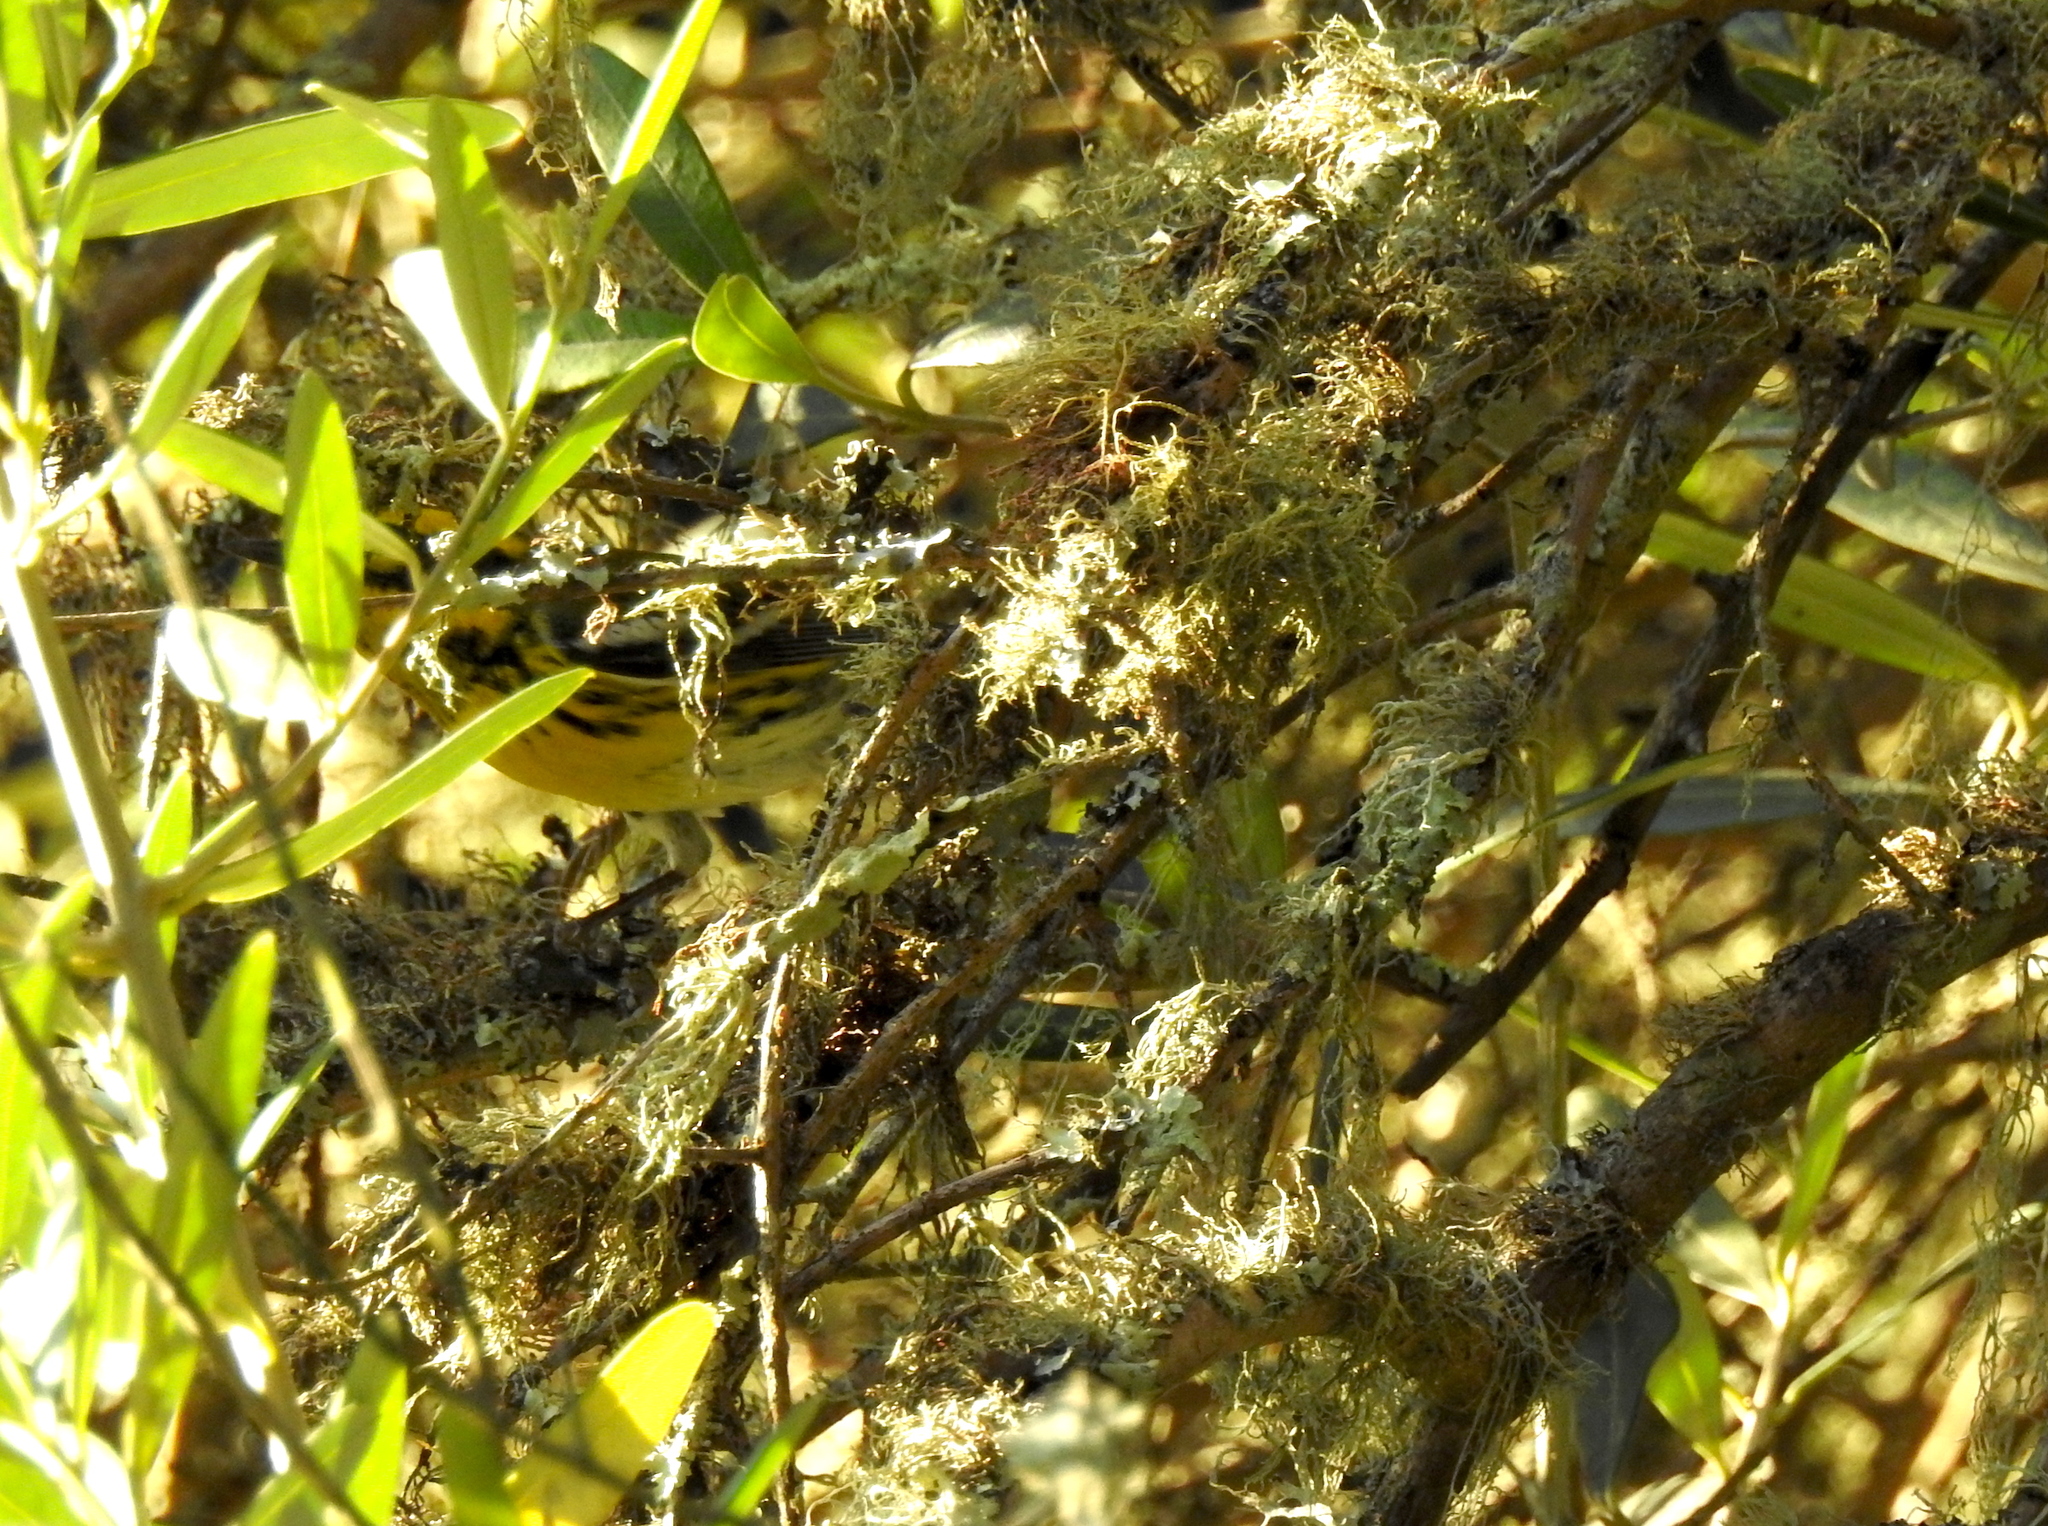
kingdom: Animalia
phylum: Chordata
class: Aves
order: Passeriformes
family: Parulidae
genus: Setophaga
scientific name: Setophaga townsendi
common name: Townsend's warbler
